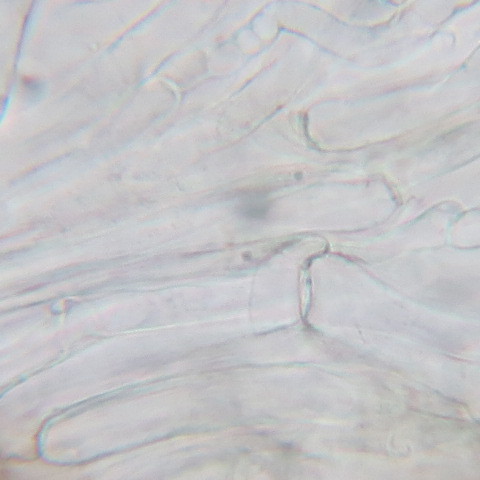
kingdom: Fungi
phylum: Basidiomycota
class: Agaricomycetes
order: Agaricales
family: Tricholomataceae
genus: Tricholomopsis
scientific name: Tricholomopsis ornaticeps
